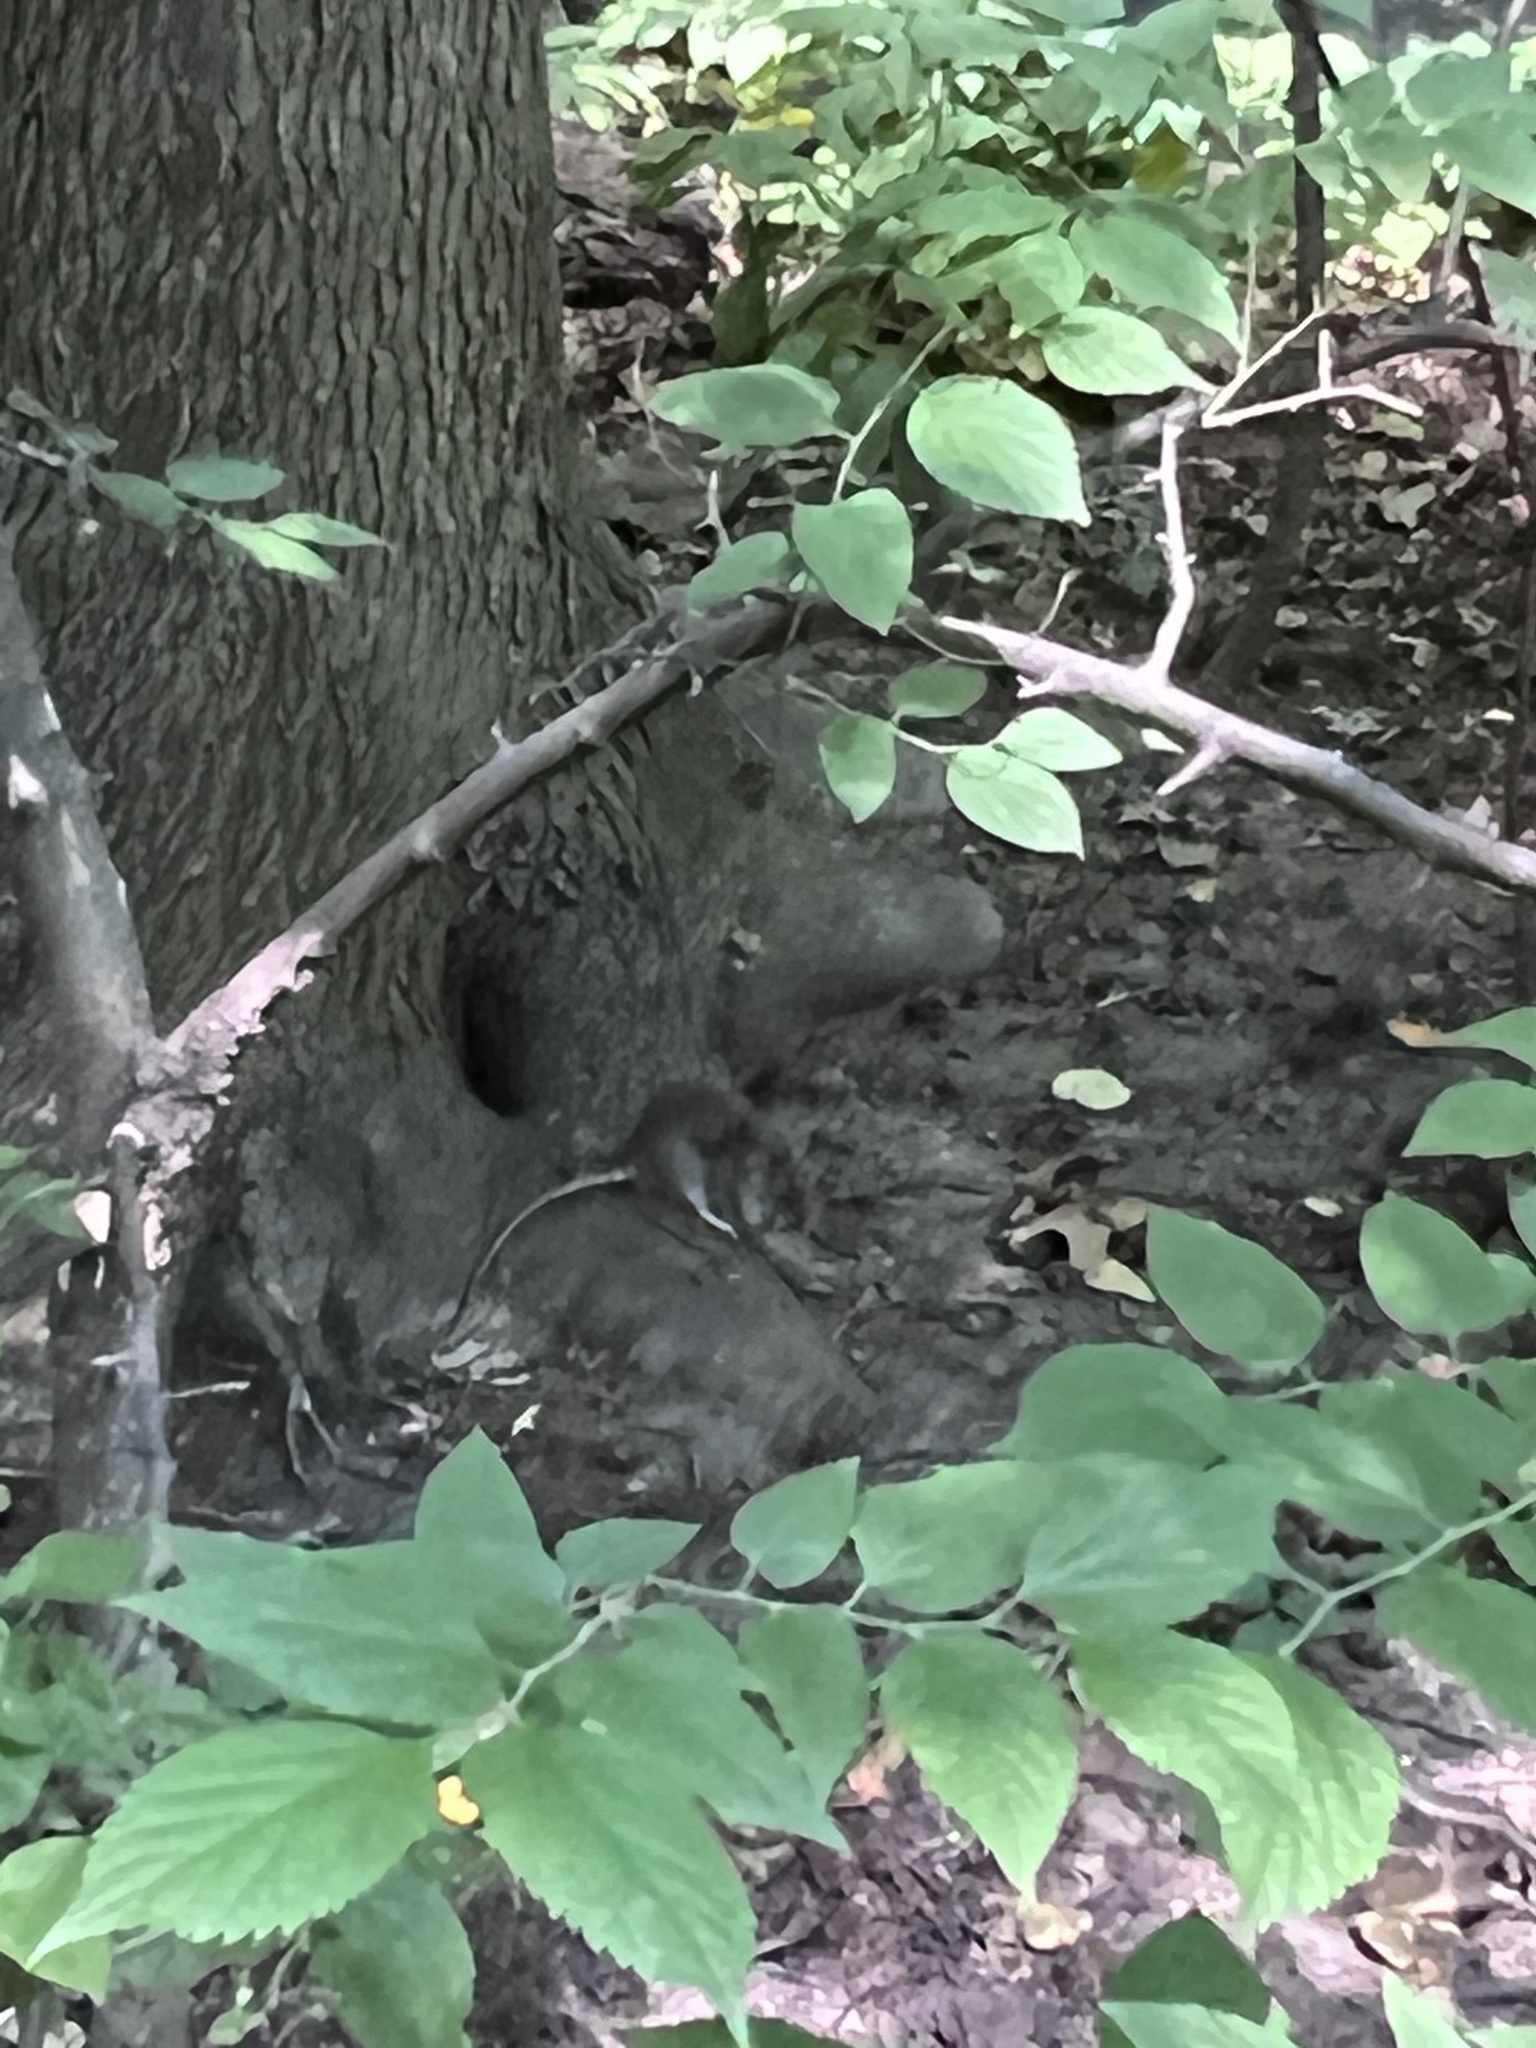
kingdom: Animalia
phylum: Chordata
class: Mammalia
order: Rodentia
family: Muridae
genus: Rattus
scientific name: Rattus norvegicus
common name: Brown rat
